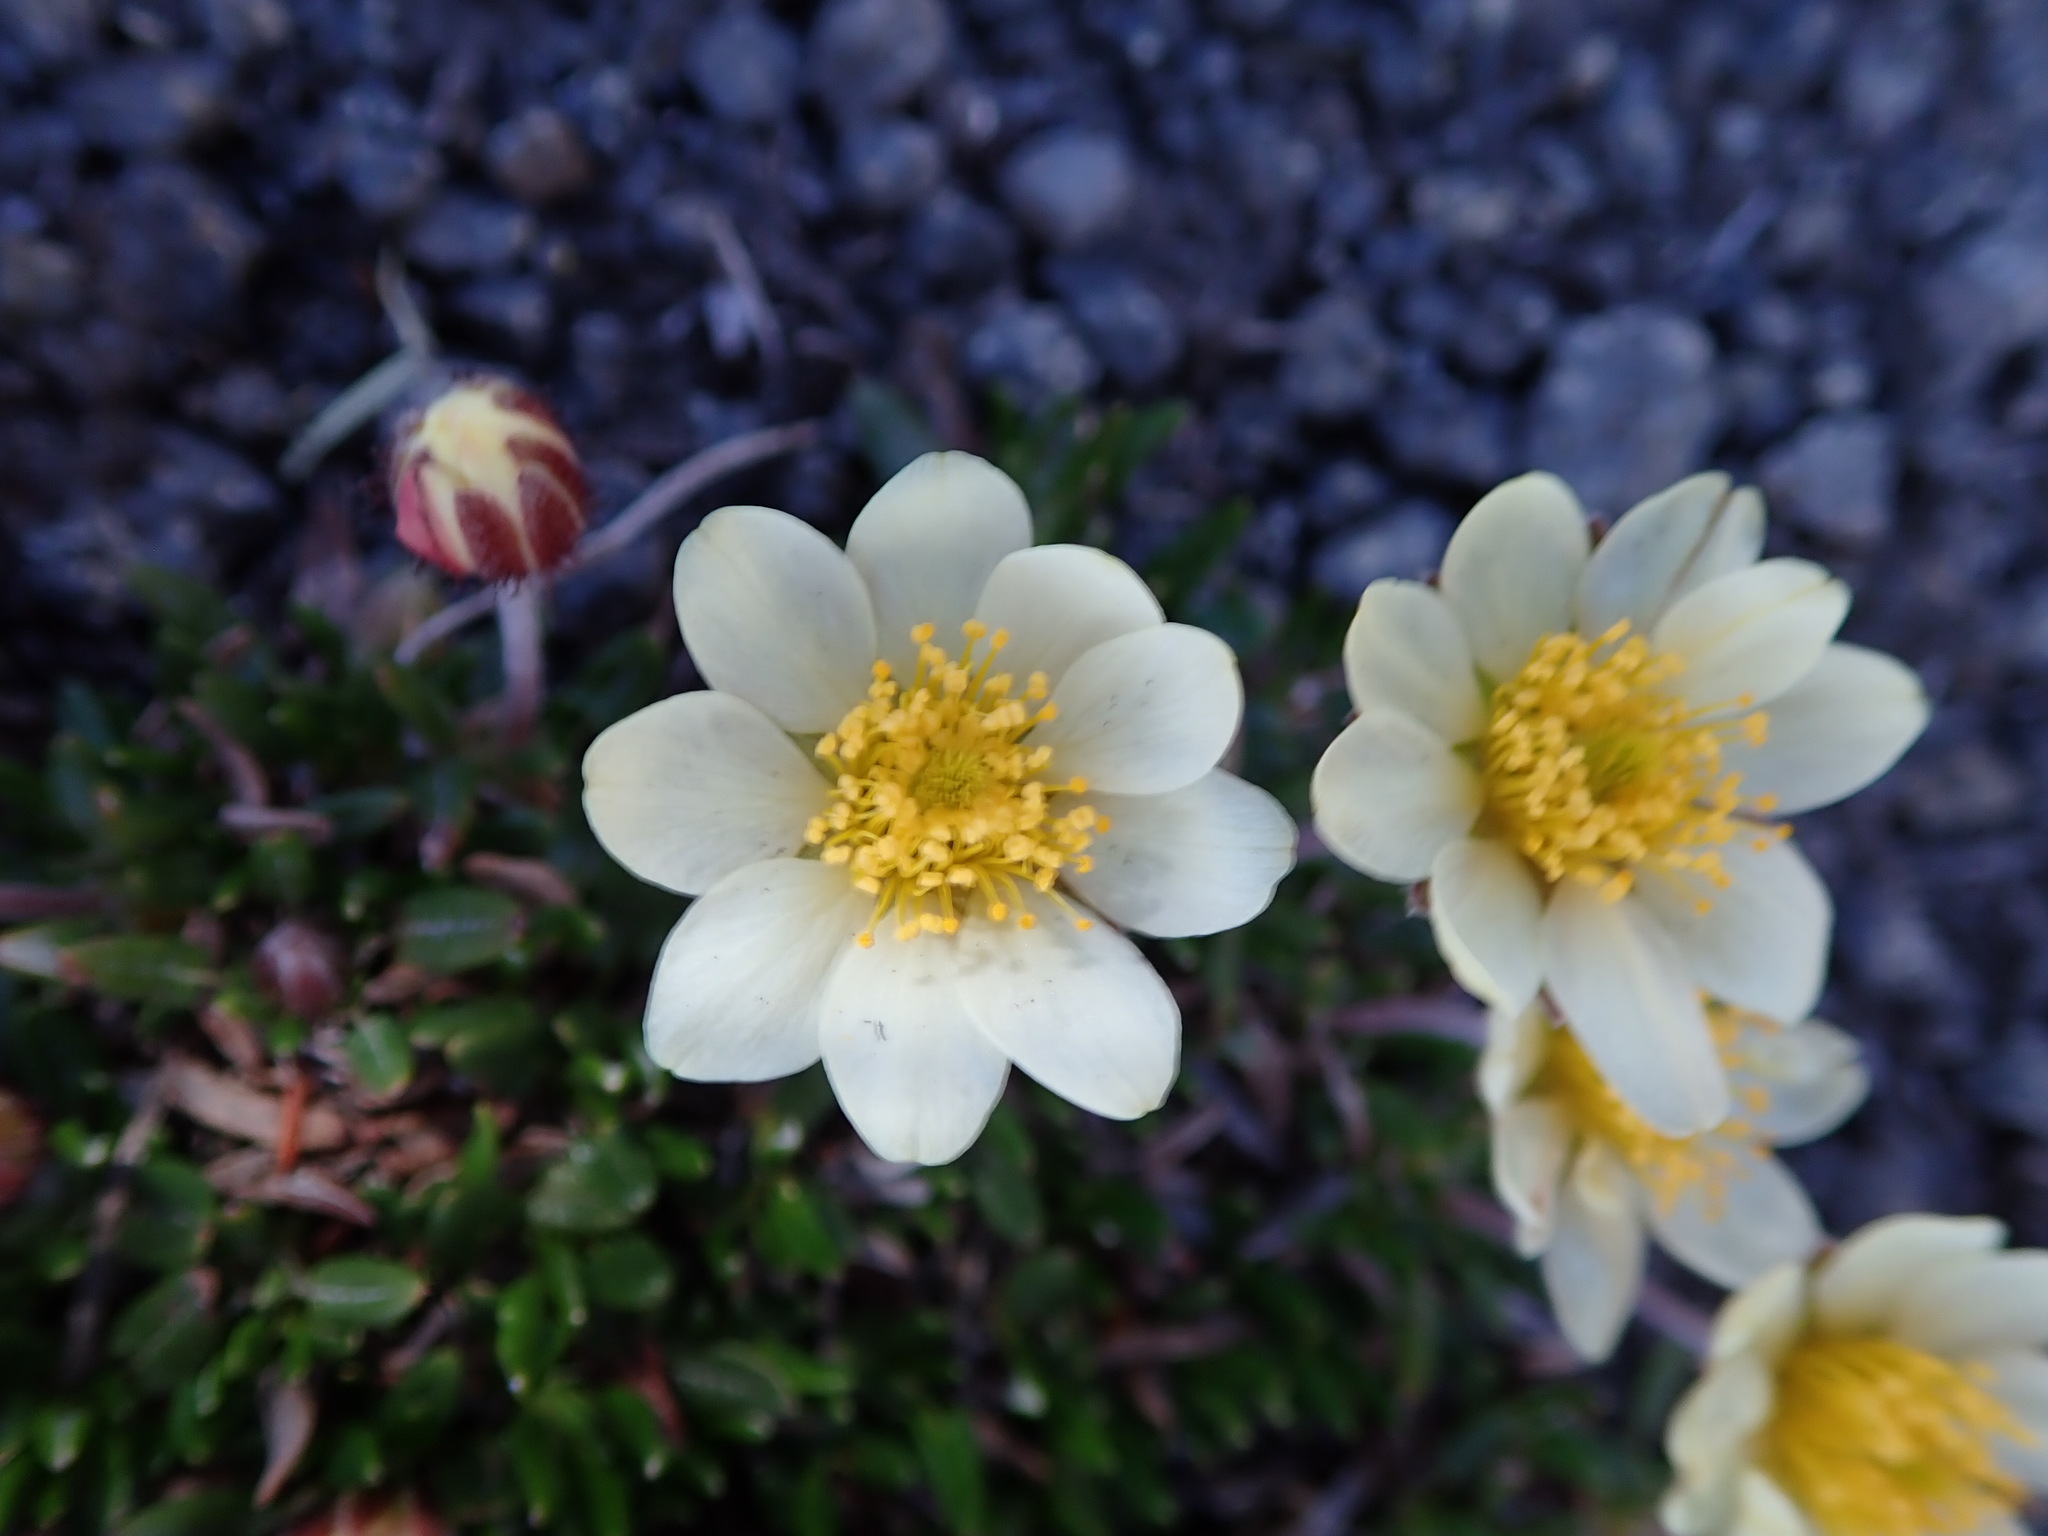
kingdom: Plantae
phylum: Tracheophyta
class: Magnoliopsida
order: Rosales
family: Rosaceae
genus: Dryas
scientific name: Dryas integrifolia
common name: Entire-leaved mountain avens
